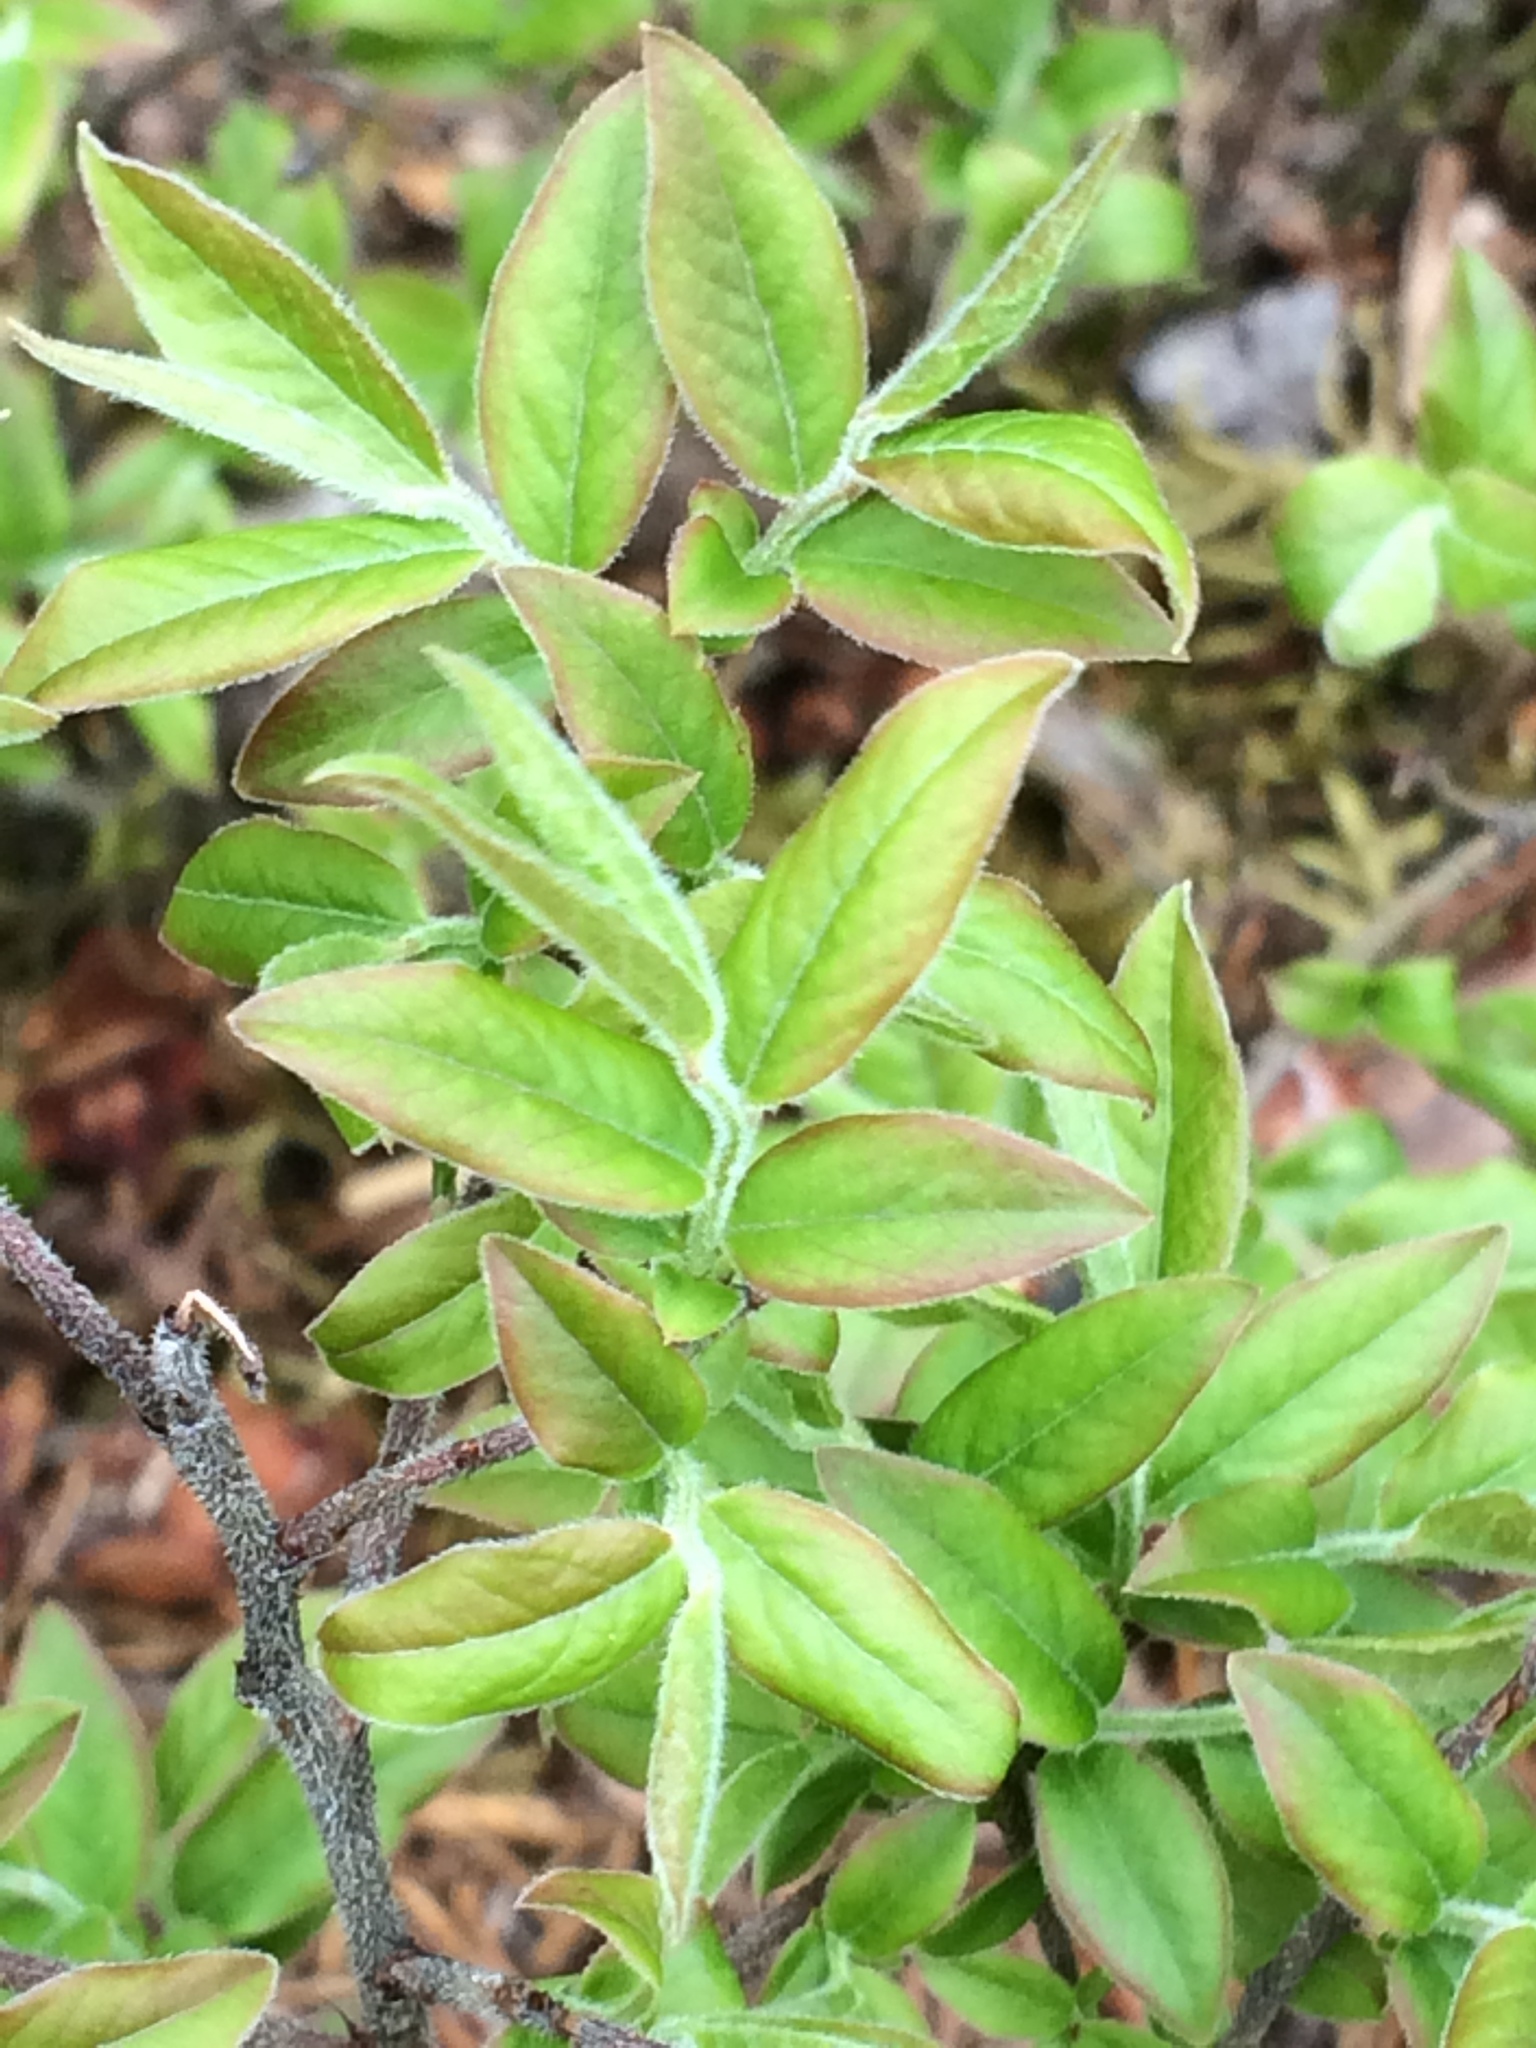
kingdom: Plantae
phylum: Tracheophyta
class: Magnoliopsida
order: Ericales
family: Ericaceae
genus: Vaccinium
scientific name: Vaccinium myrtilloides
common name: Canada blueberry
